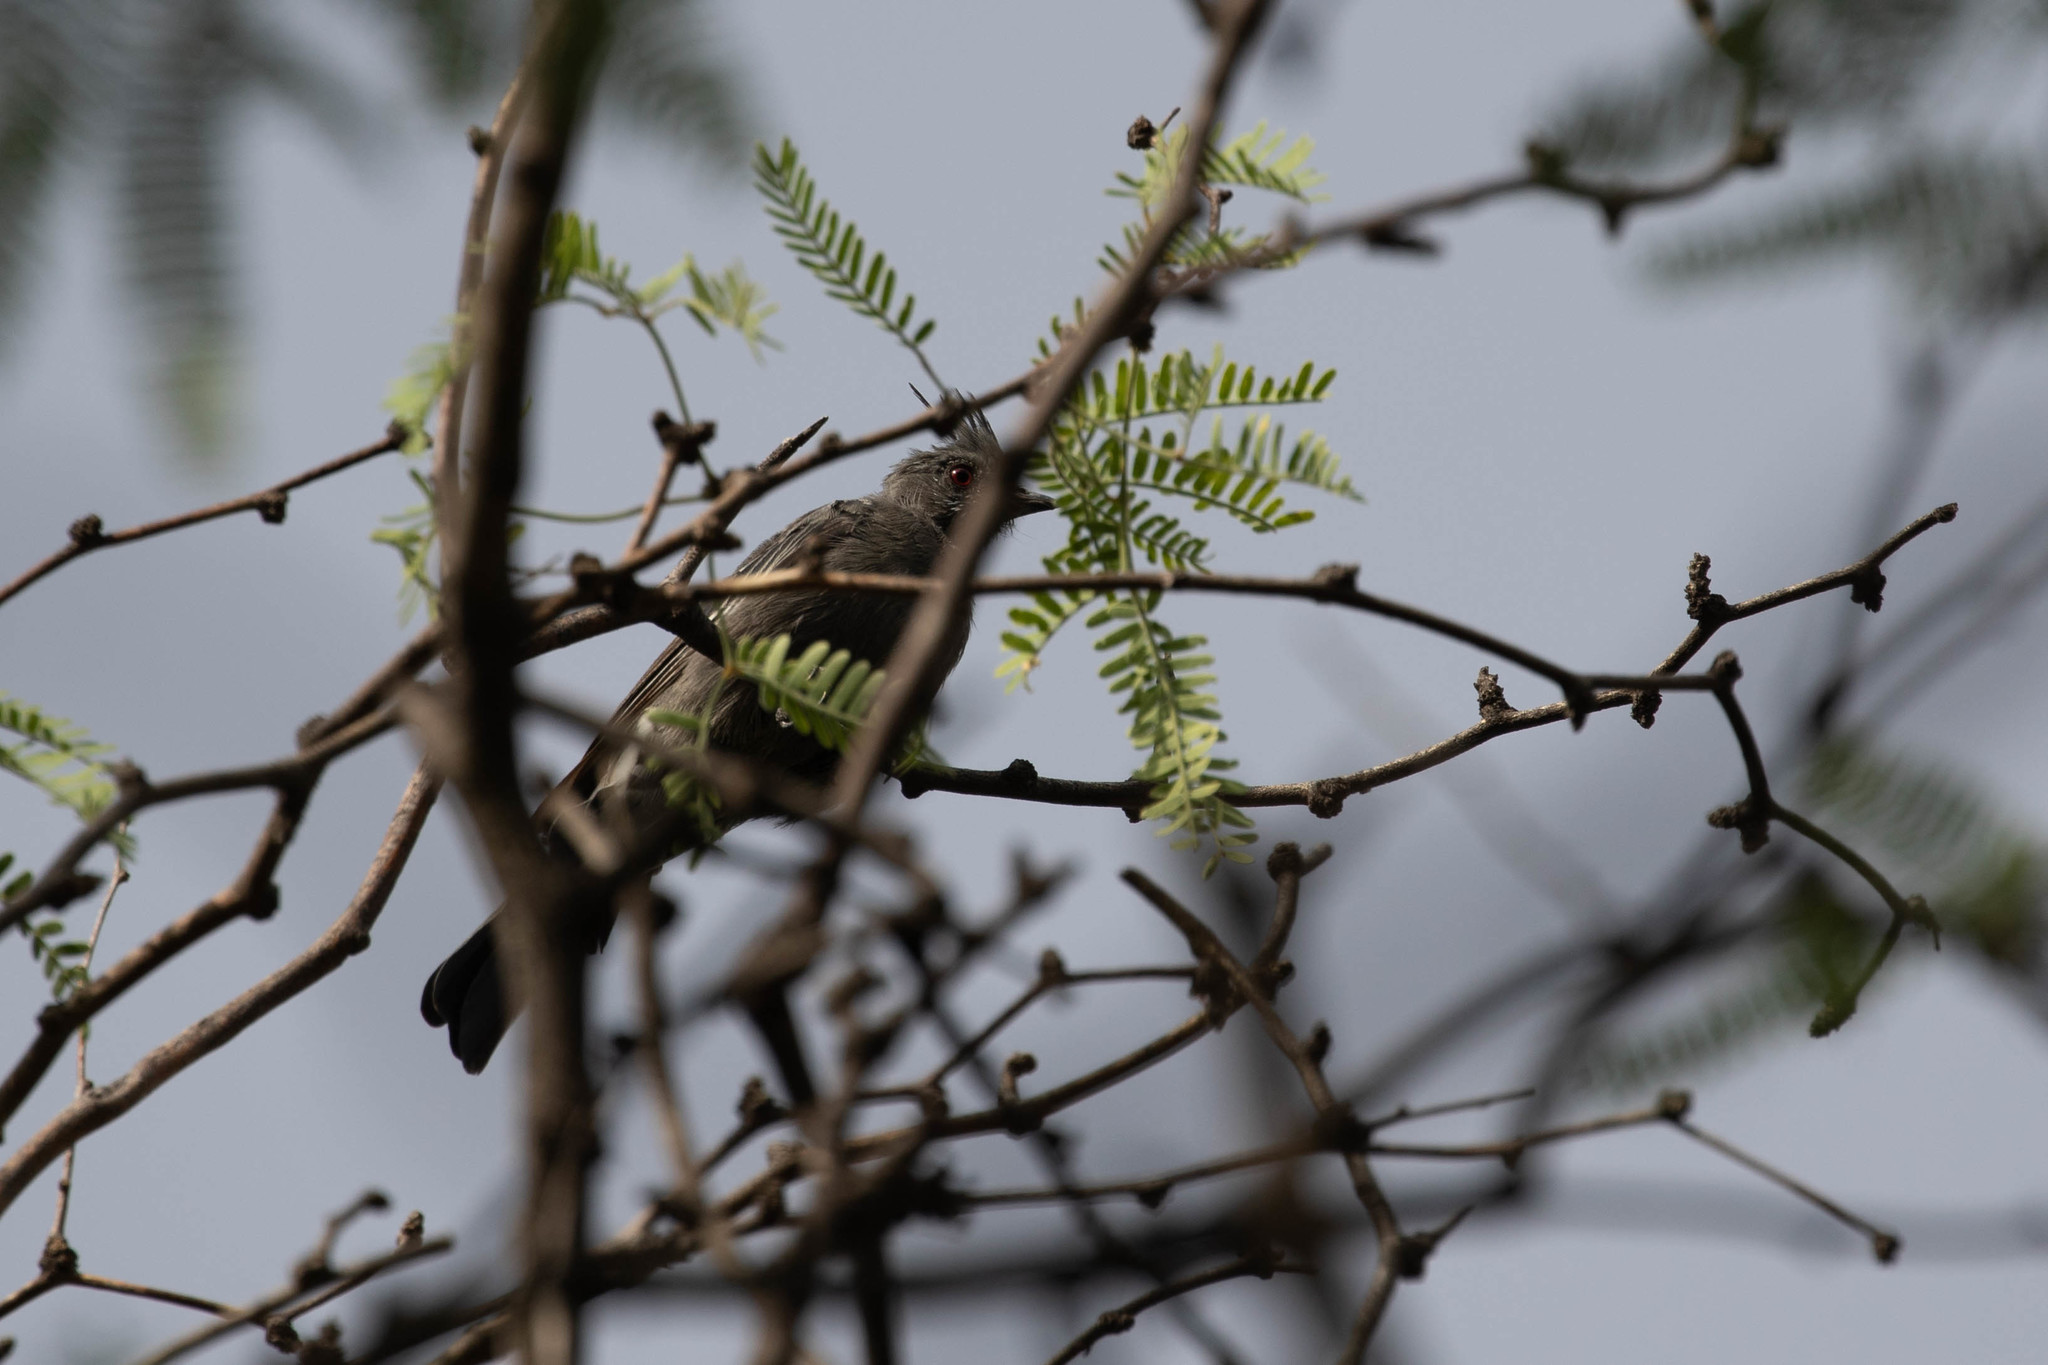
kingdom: Animalia
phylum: Chordata
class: Aves
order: Passeriformes
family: Ptilogonatidae
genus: Phainopepla
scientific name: Phainopepla nitens
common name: Phainopepla
